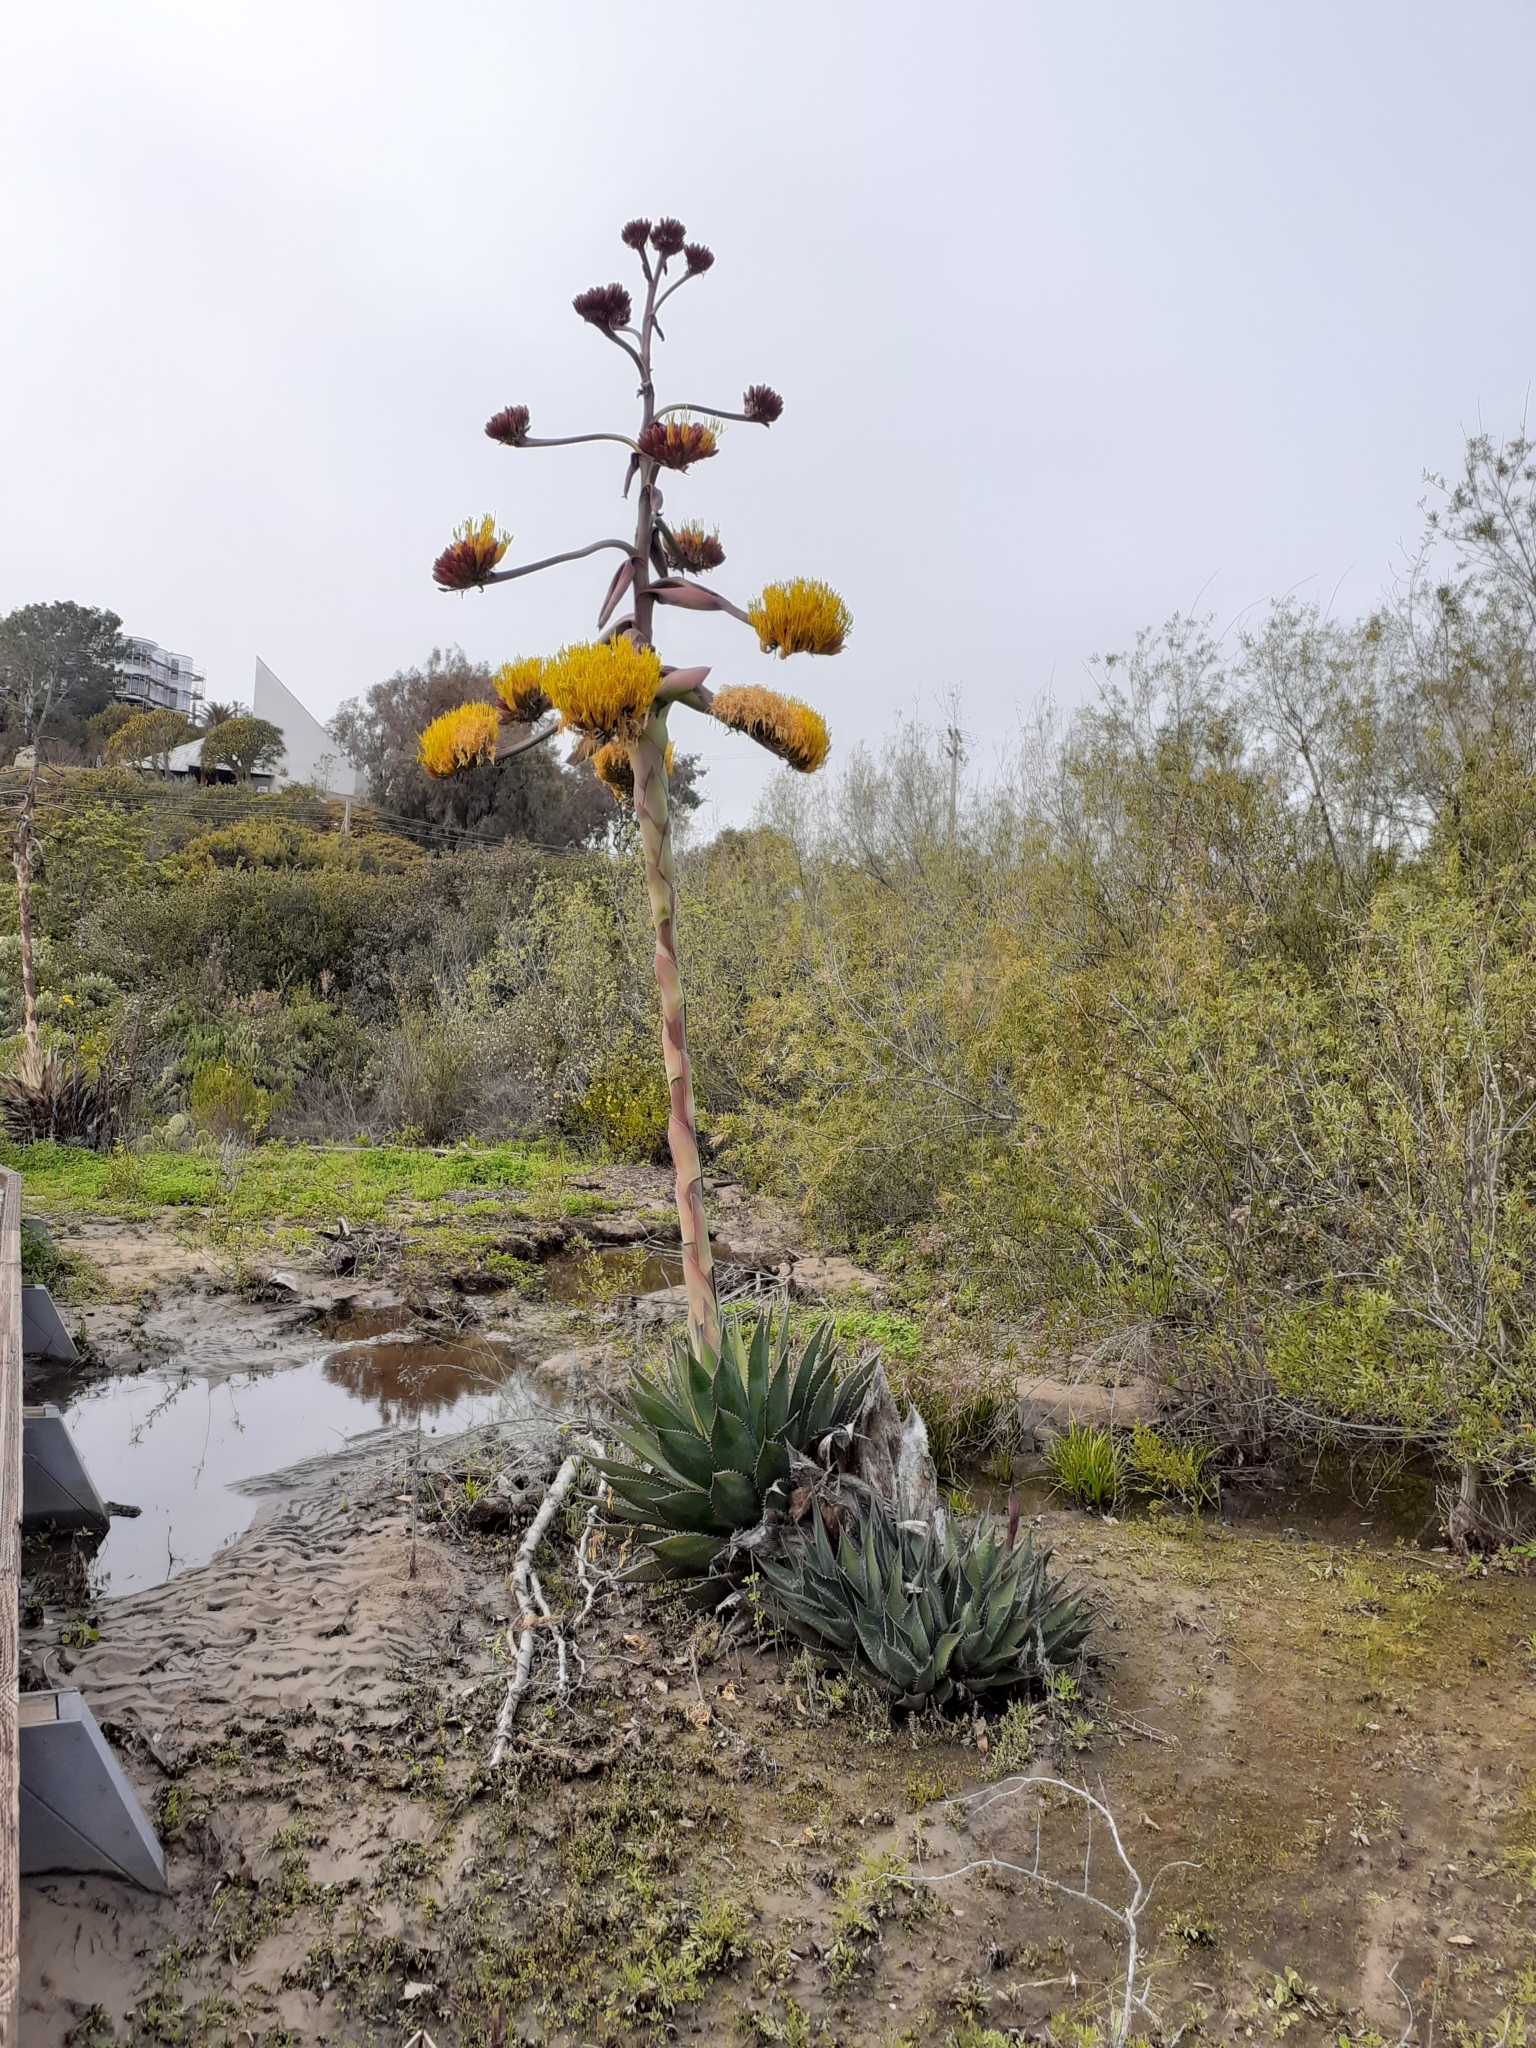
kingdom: Plantae
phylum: Tracheophyta
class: Liliopsida
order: Asparagales
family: Asparagaceae
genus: Agave
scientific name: Agave shawii
